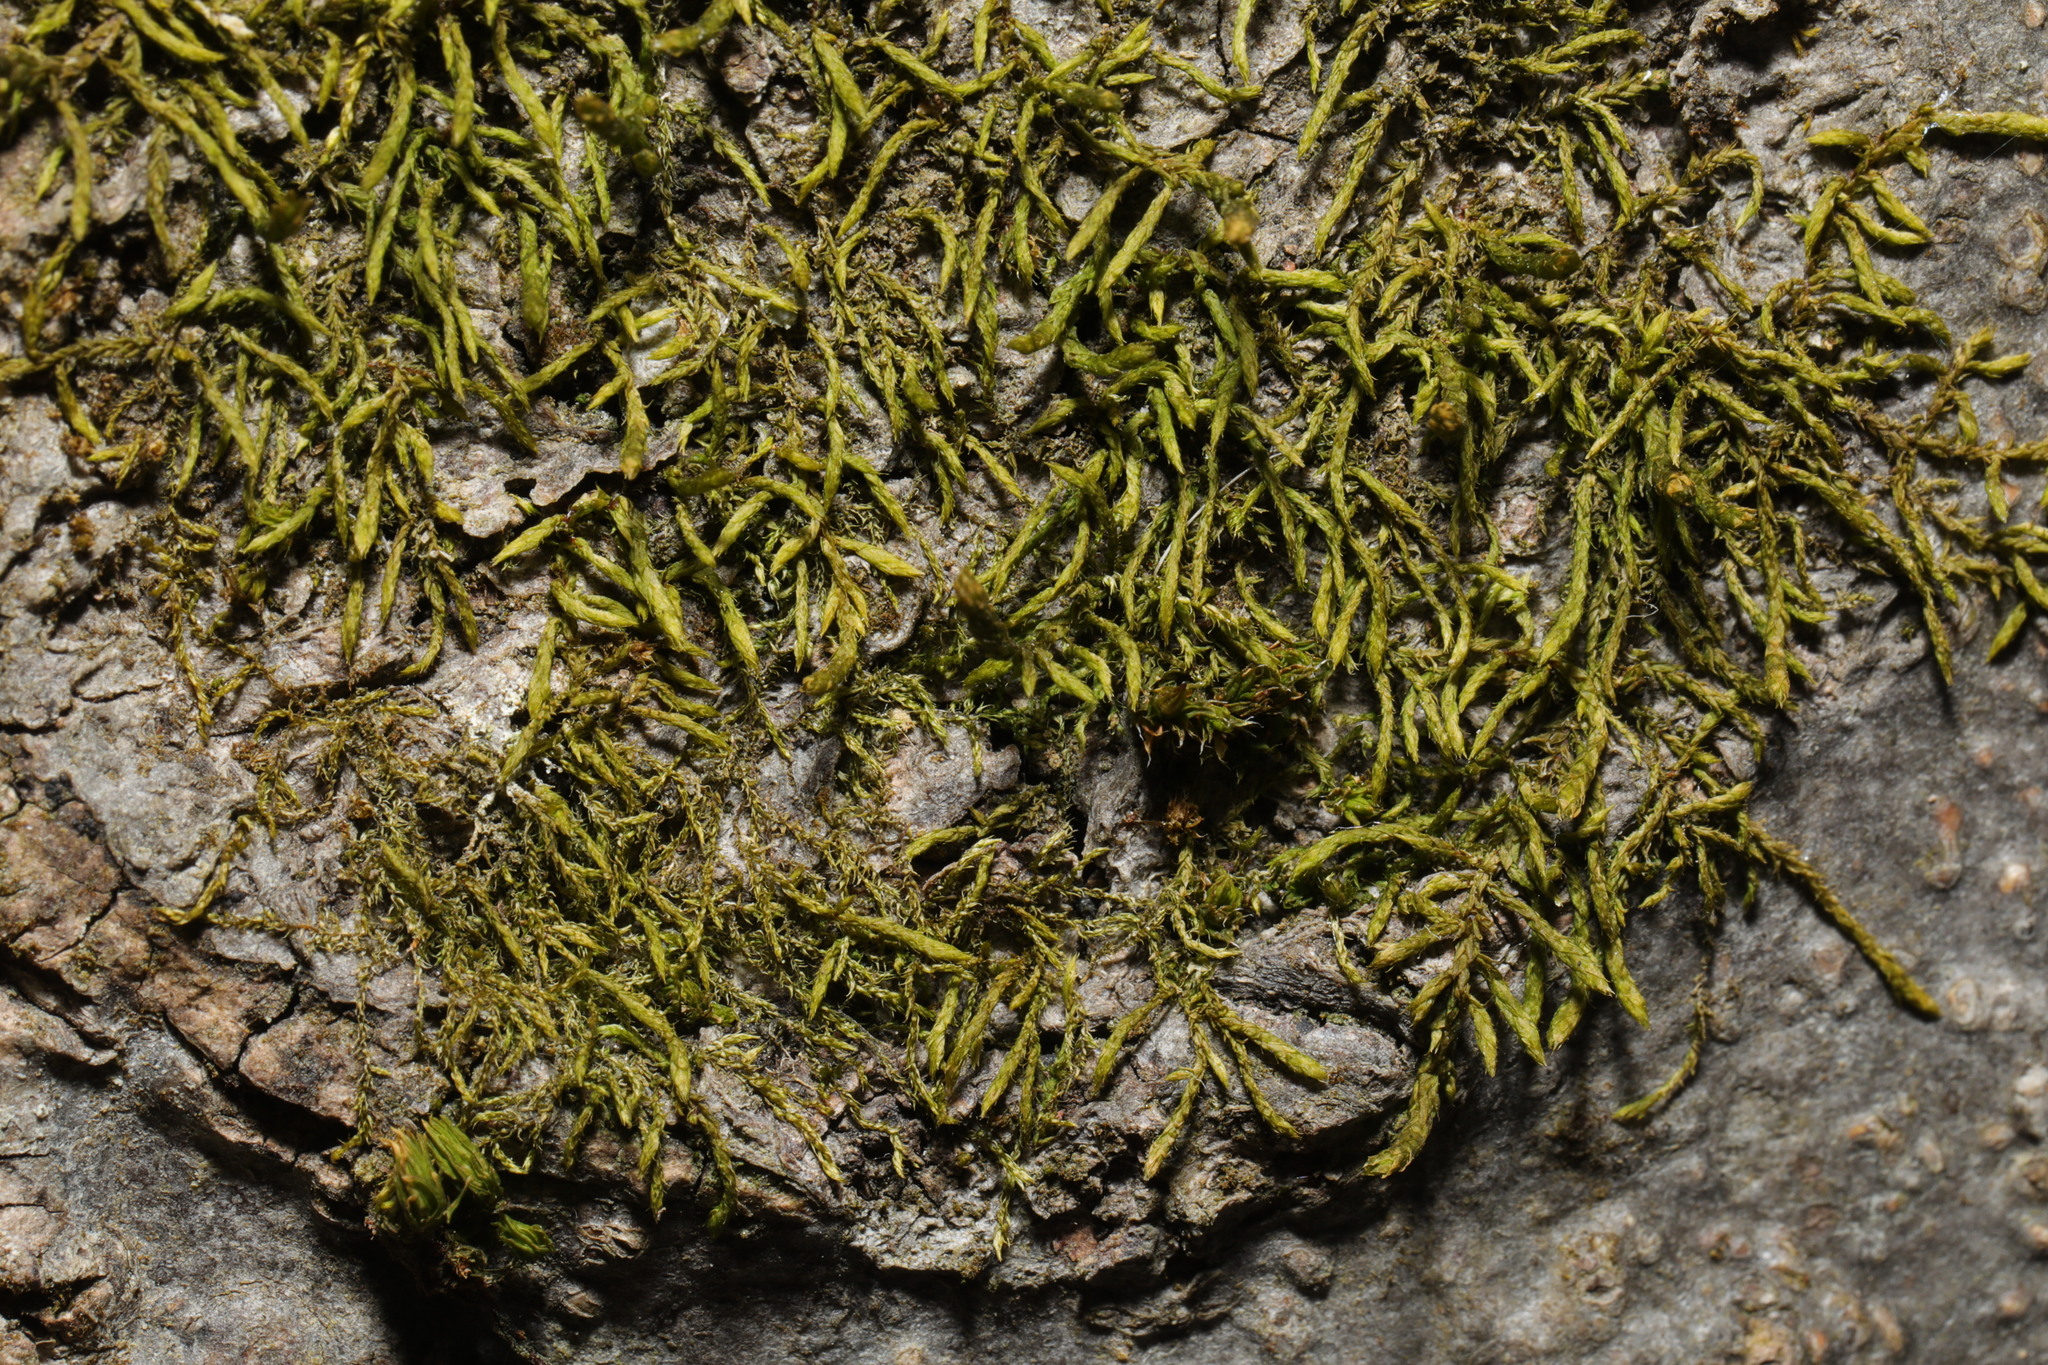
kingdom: Plantae
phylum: Bryophyta
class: Bryopsida
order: Hypnales
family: Cryphaeaceae
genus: Cryphaea
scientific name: Cryphaea heteromalla
